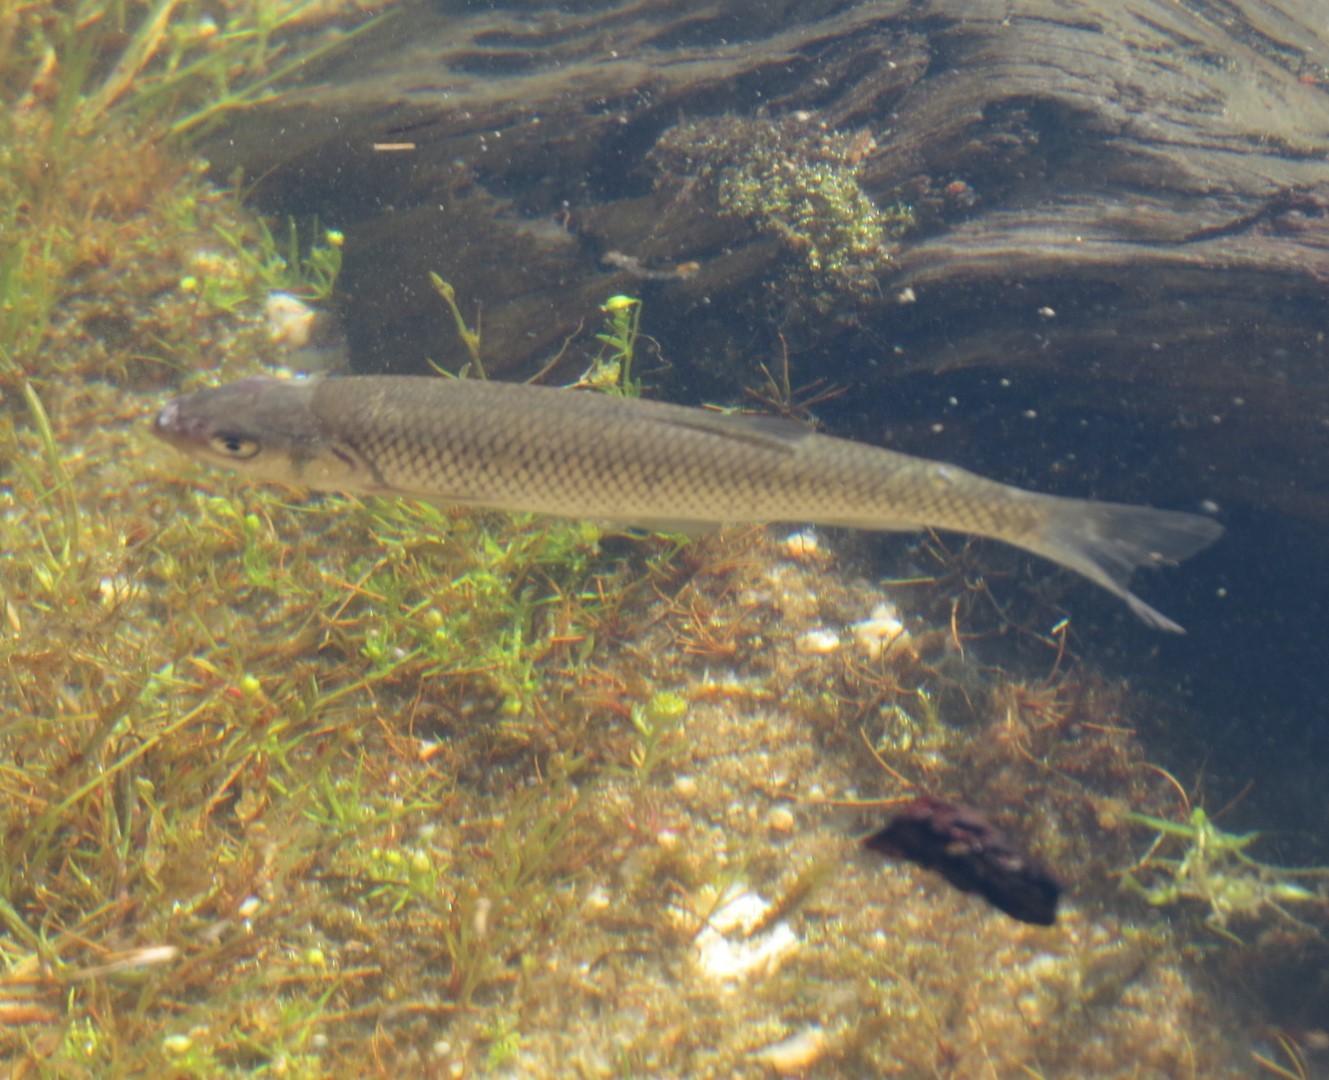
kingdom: Animalia
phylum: Chordata
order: Cypriniformes
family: Cyprinidae
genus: Squalius
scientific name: Squalius cephalus
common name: Chub
